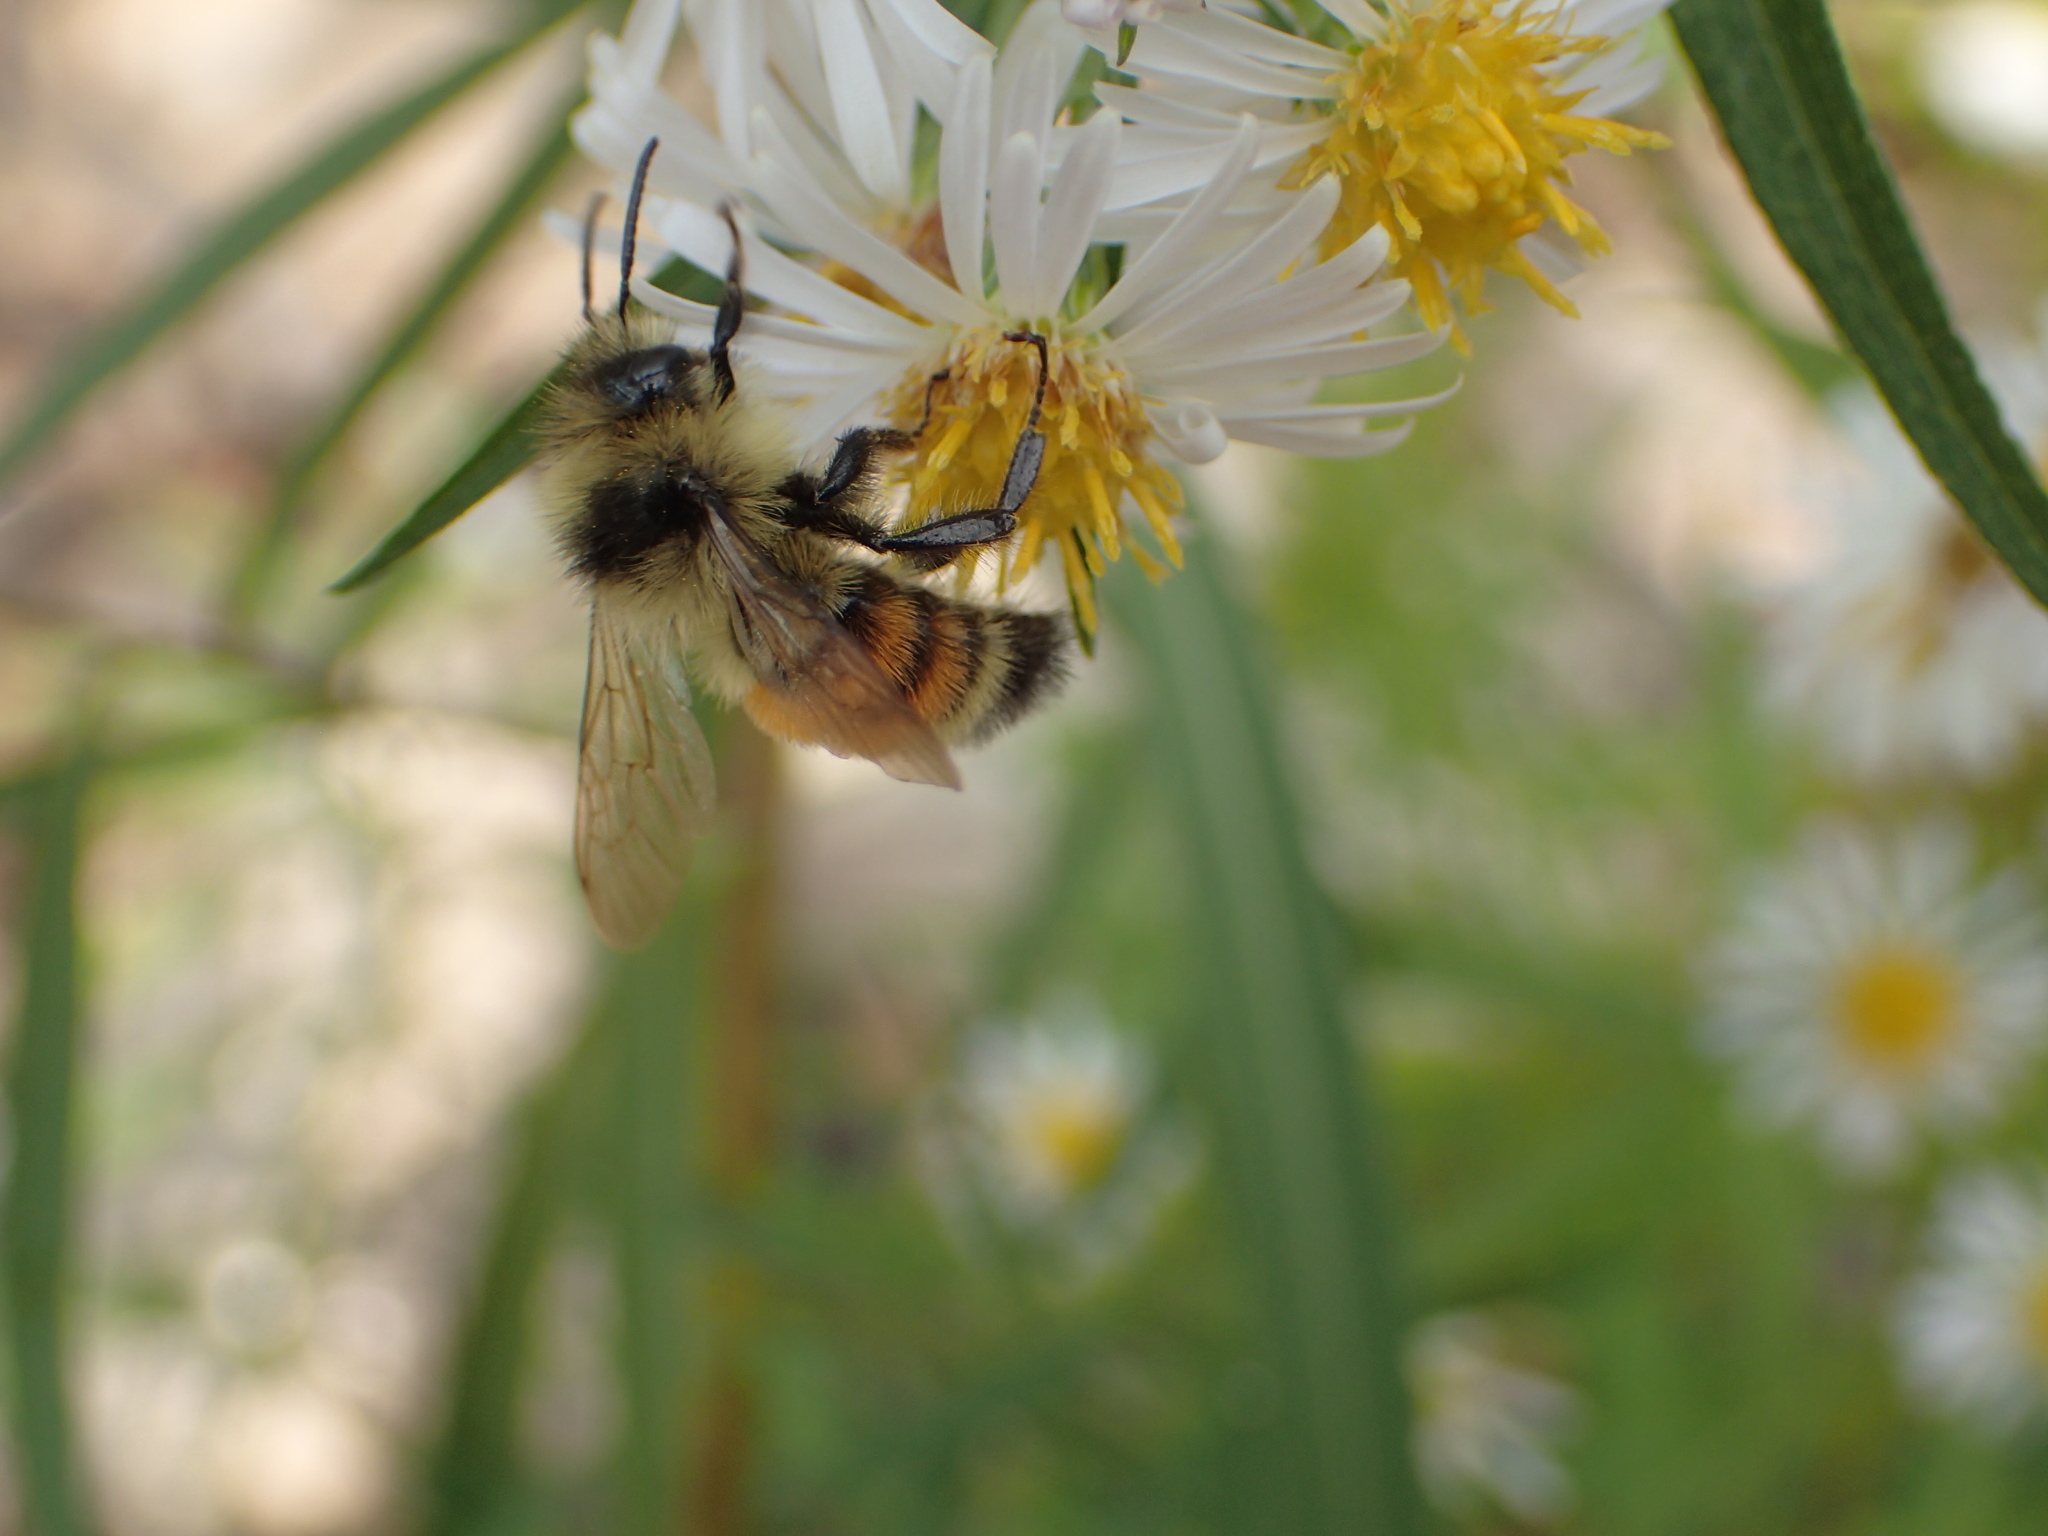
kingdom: Animalia
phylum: Arthropoda
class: Insecta
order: Hymenoptera
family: Apidae
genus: Bombus
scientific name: Bombus ternarius
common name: Tri-colored bumble bee
